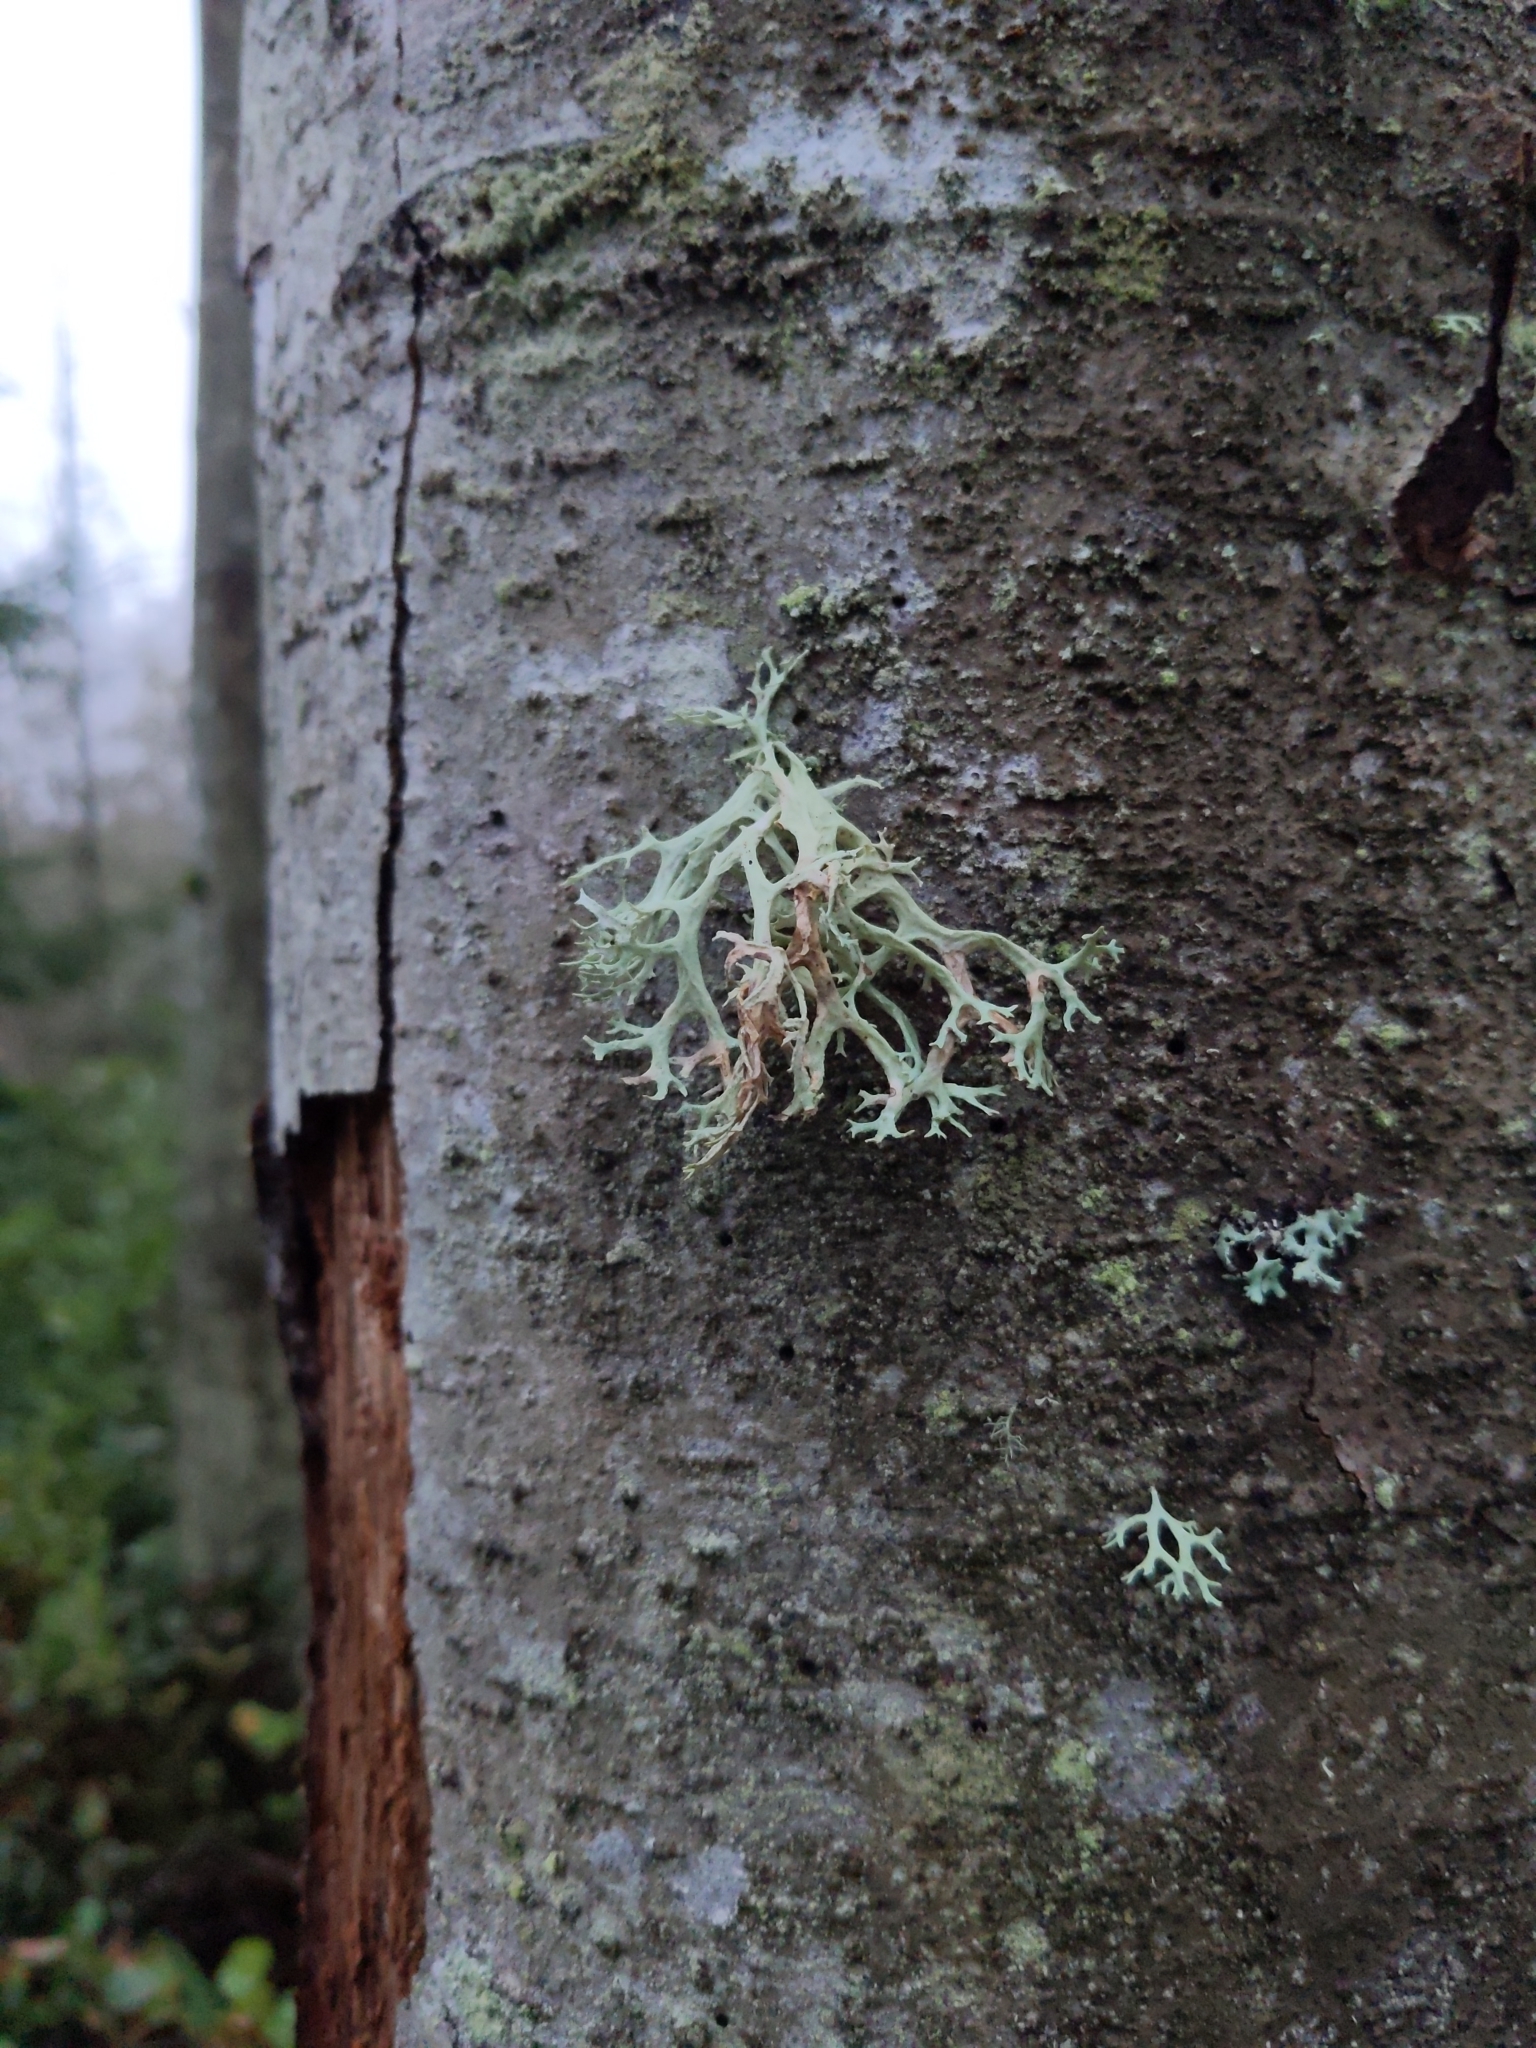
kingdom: Fungi
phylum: Ascomycota
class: Lecanoromycetes
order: Lecanorales
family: Parmeliaceae
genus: Evernia
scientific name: Evernia prunastri
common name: Oak moss
